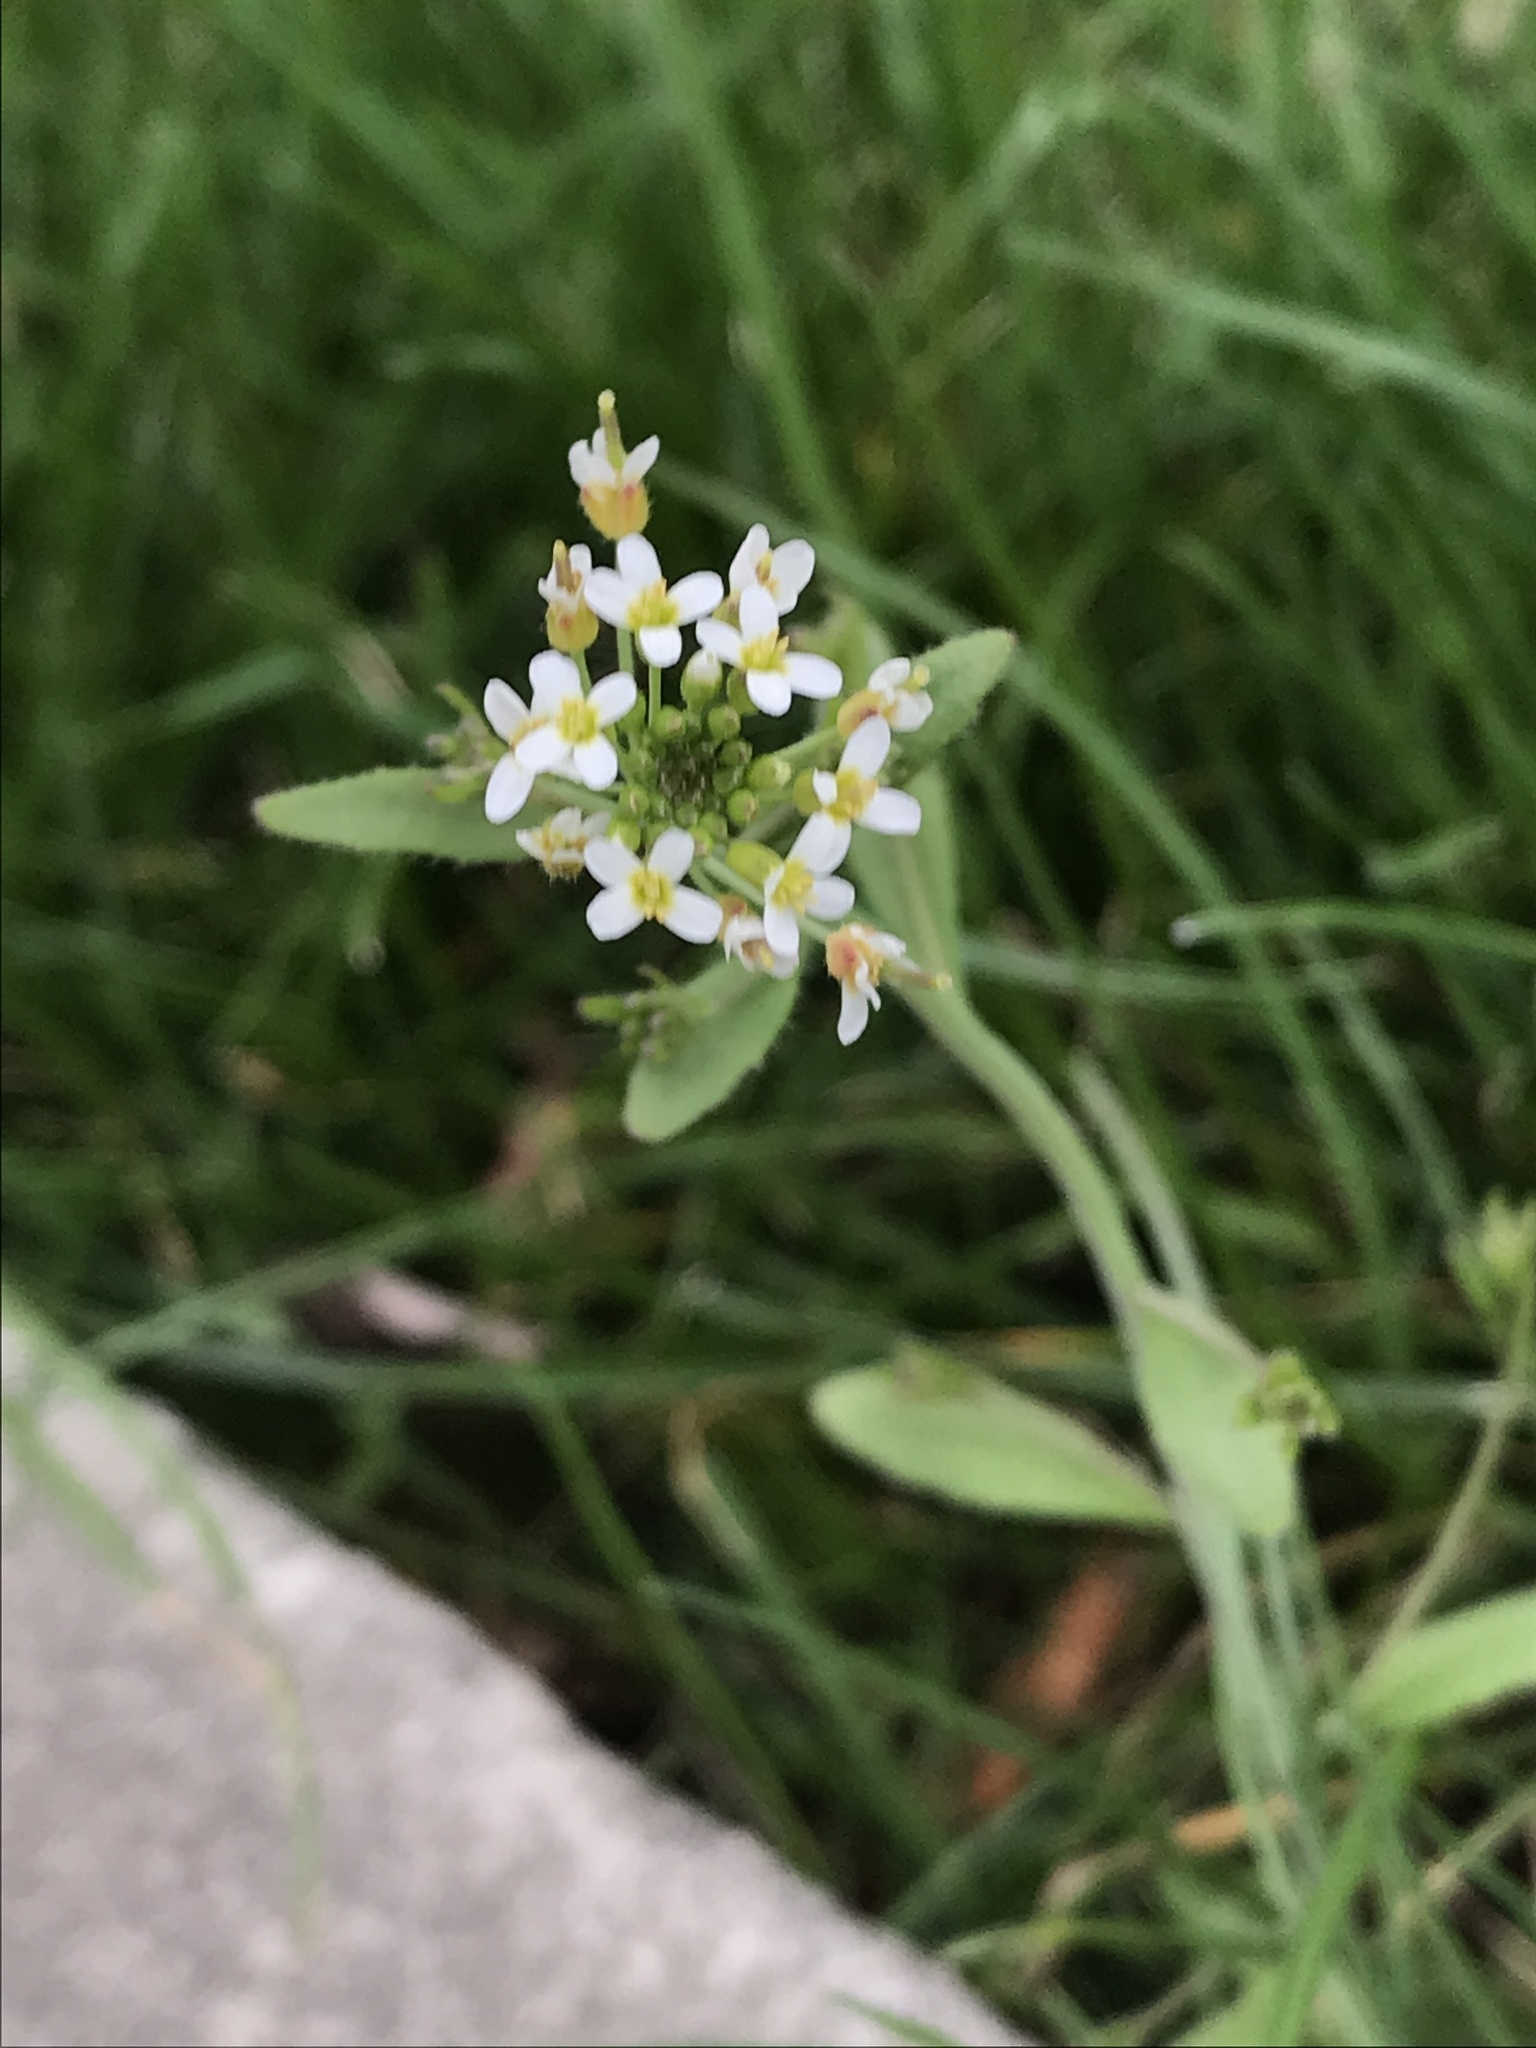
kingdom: Plantae
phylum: Tracheophyta
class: Magnoliopsida
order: Brassicales
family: Brassicaceae
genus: Arabidopsis
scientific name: Arabidopsis thaliana
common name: Thale cress
